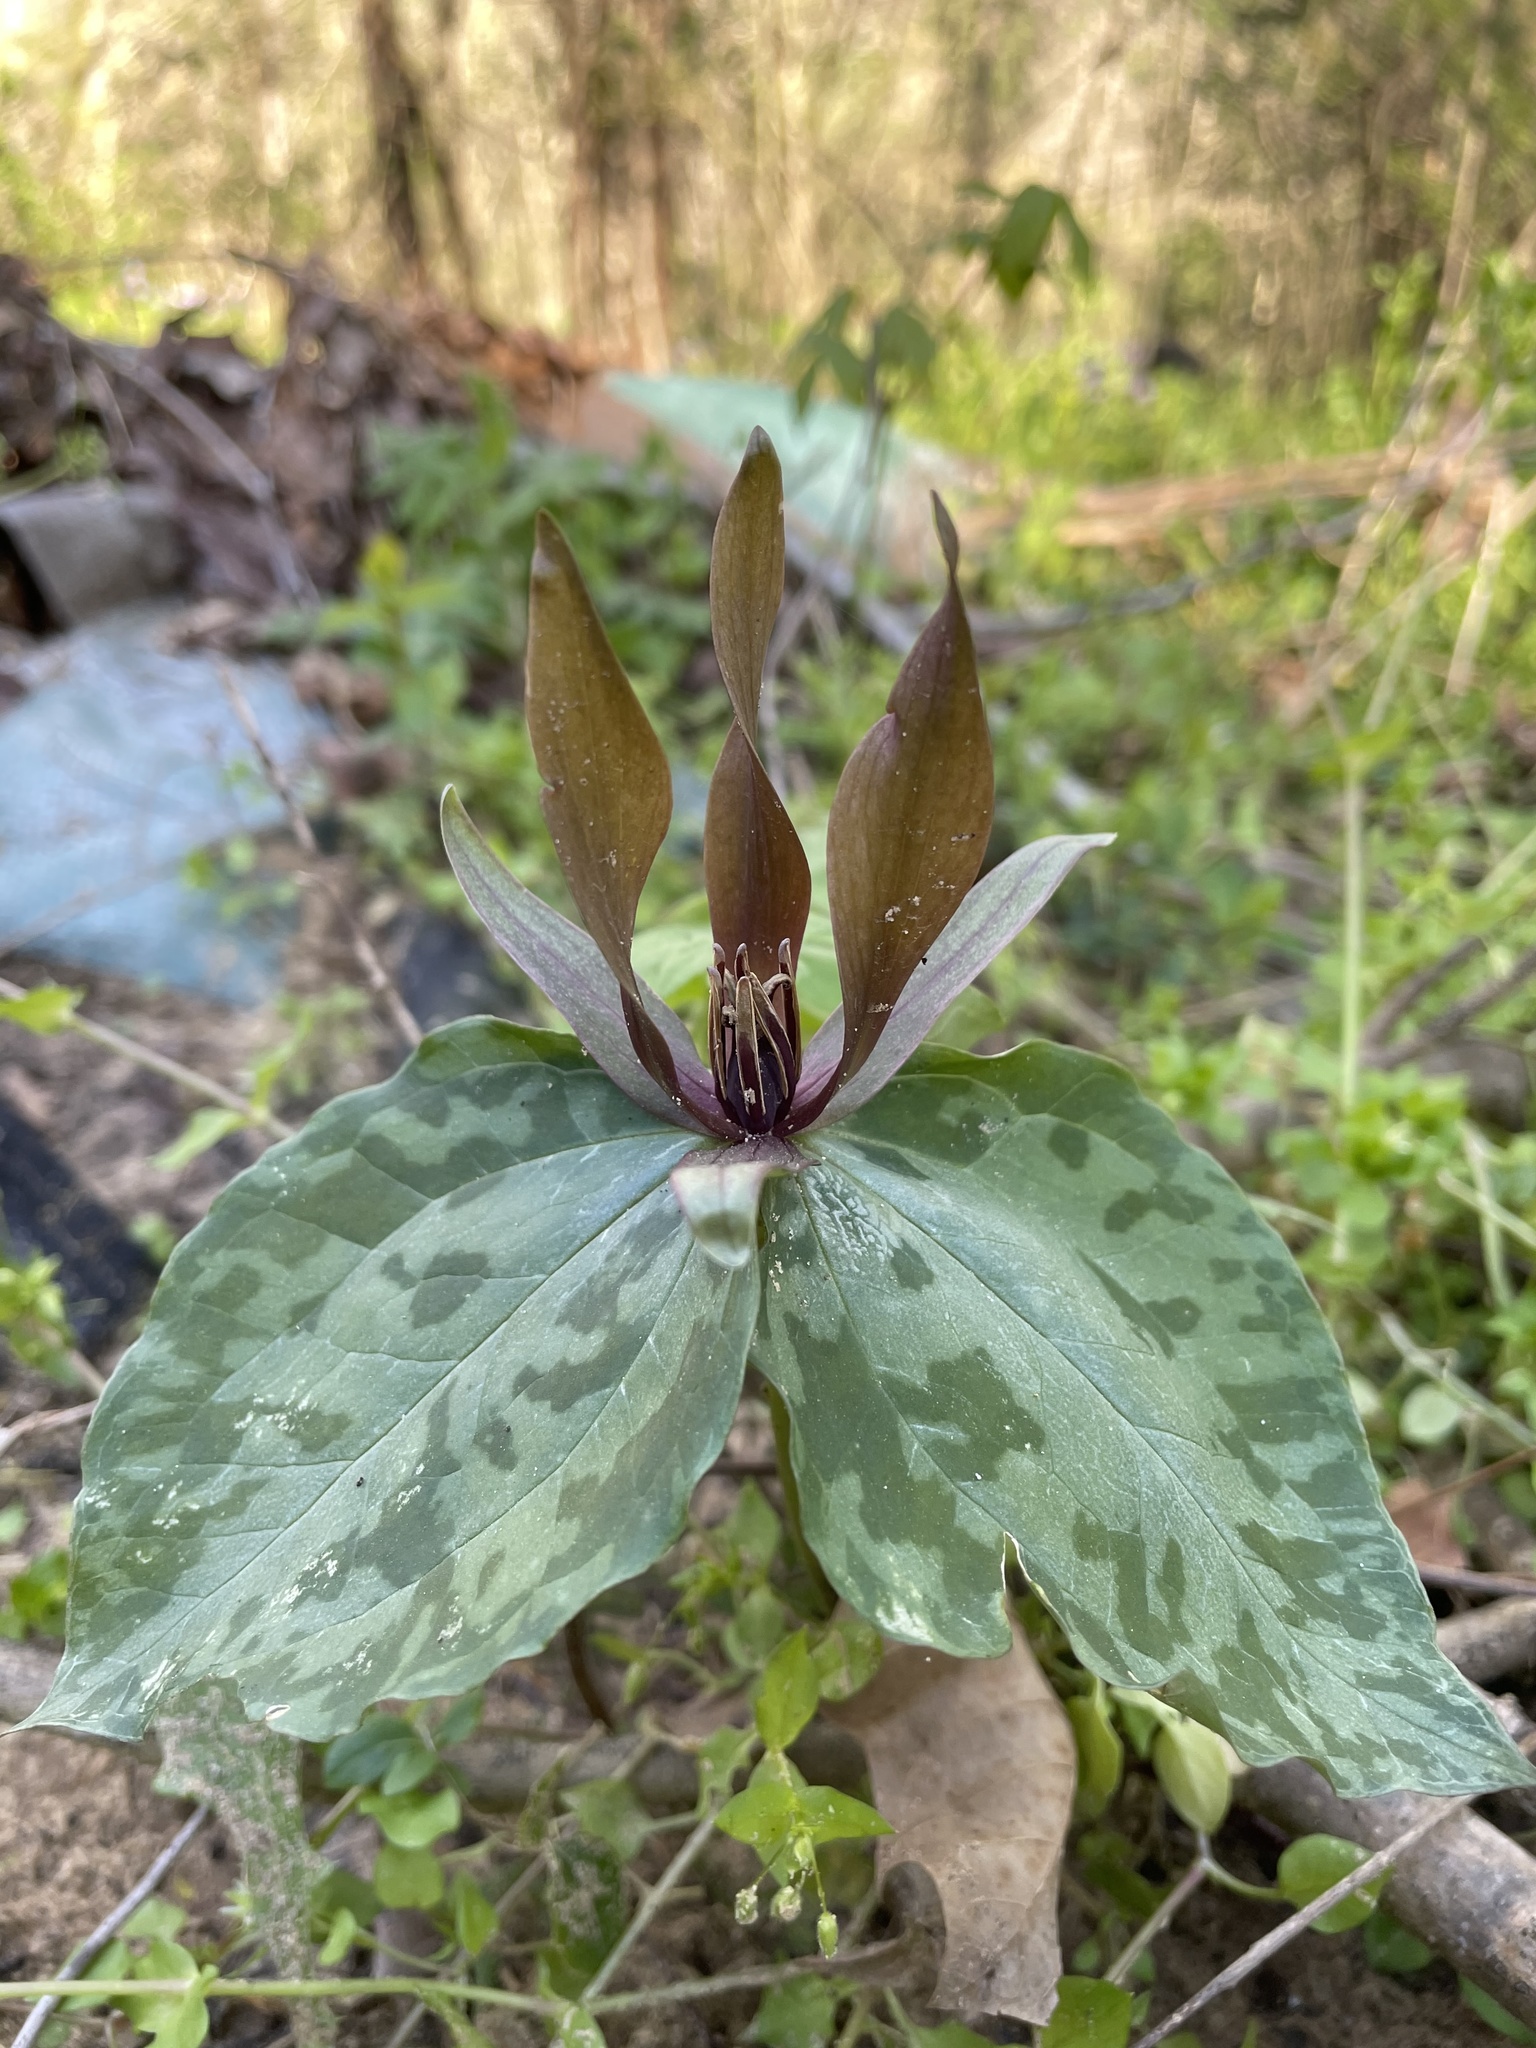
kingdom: Plantae
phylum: Tracheophyta
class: Liliopsida
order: Liliales
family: Melanthiaceae
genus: Trillium
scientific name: Trillium cuneatum
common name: Cuneate trillium
